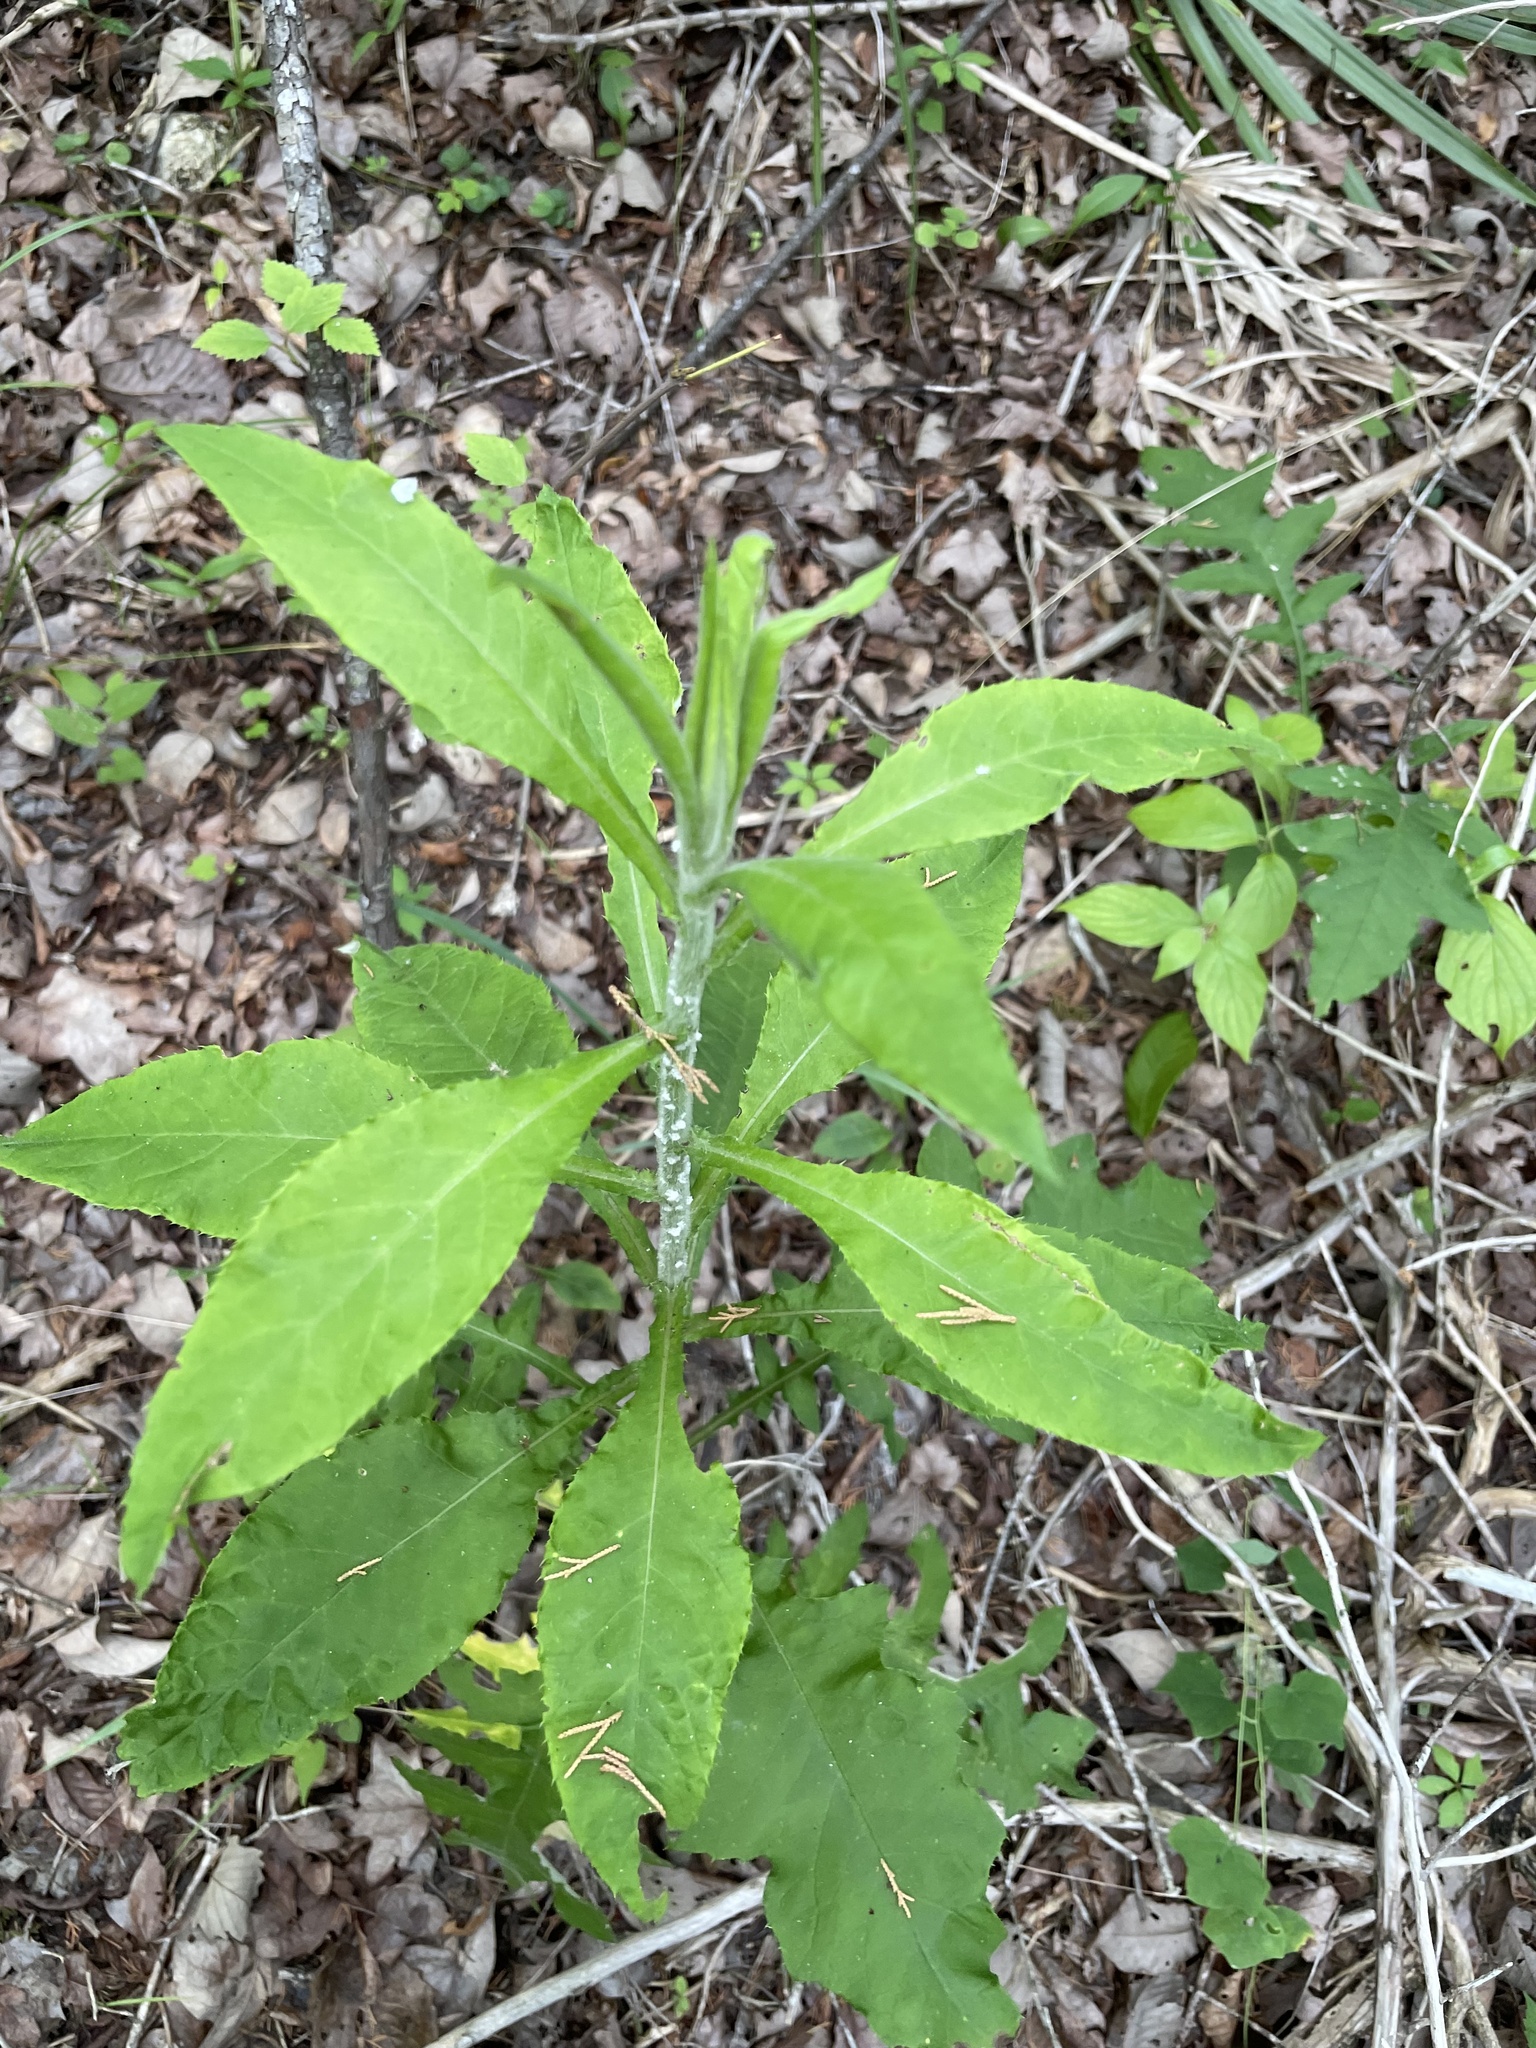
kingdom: Plantae
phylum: Tracheophyta
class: Magnoliopsida
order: Asterales
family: Asteraceae
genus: Cirsium
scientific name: Cirsium altissimum
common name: Roadside thistle
